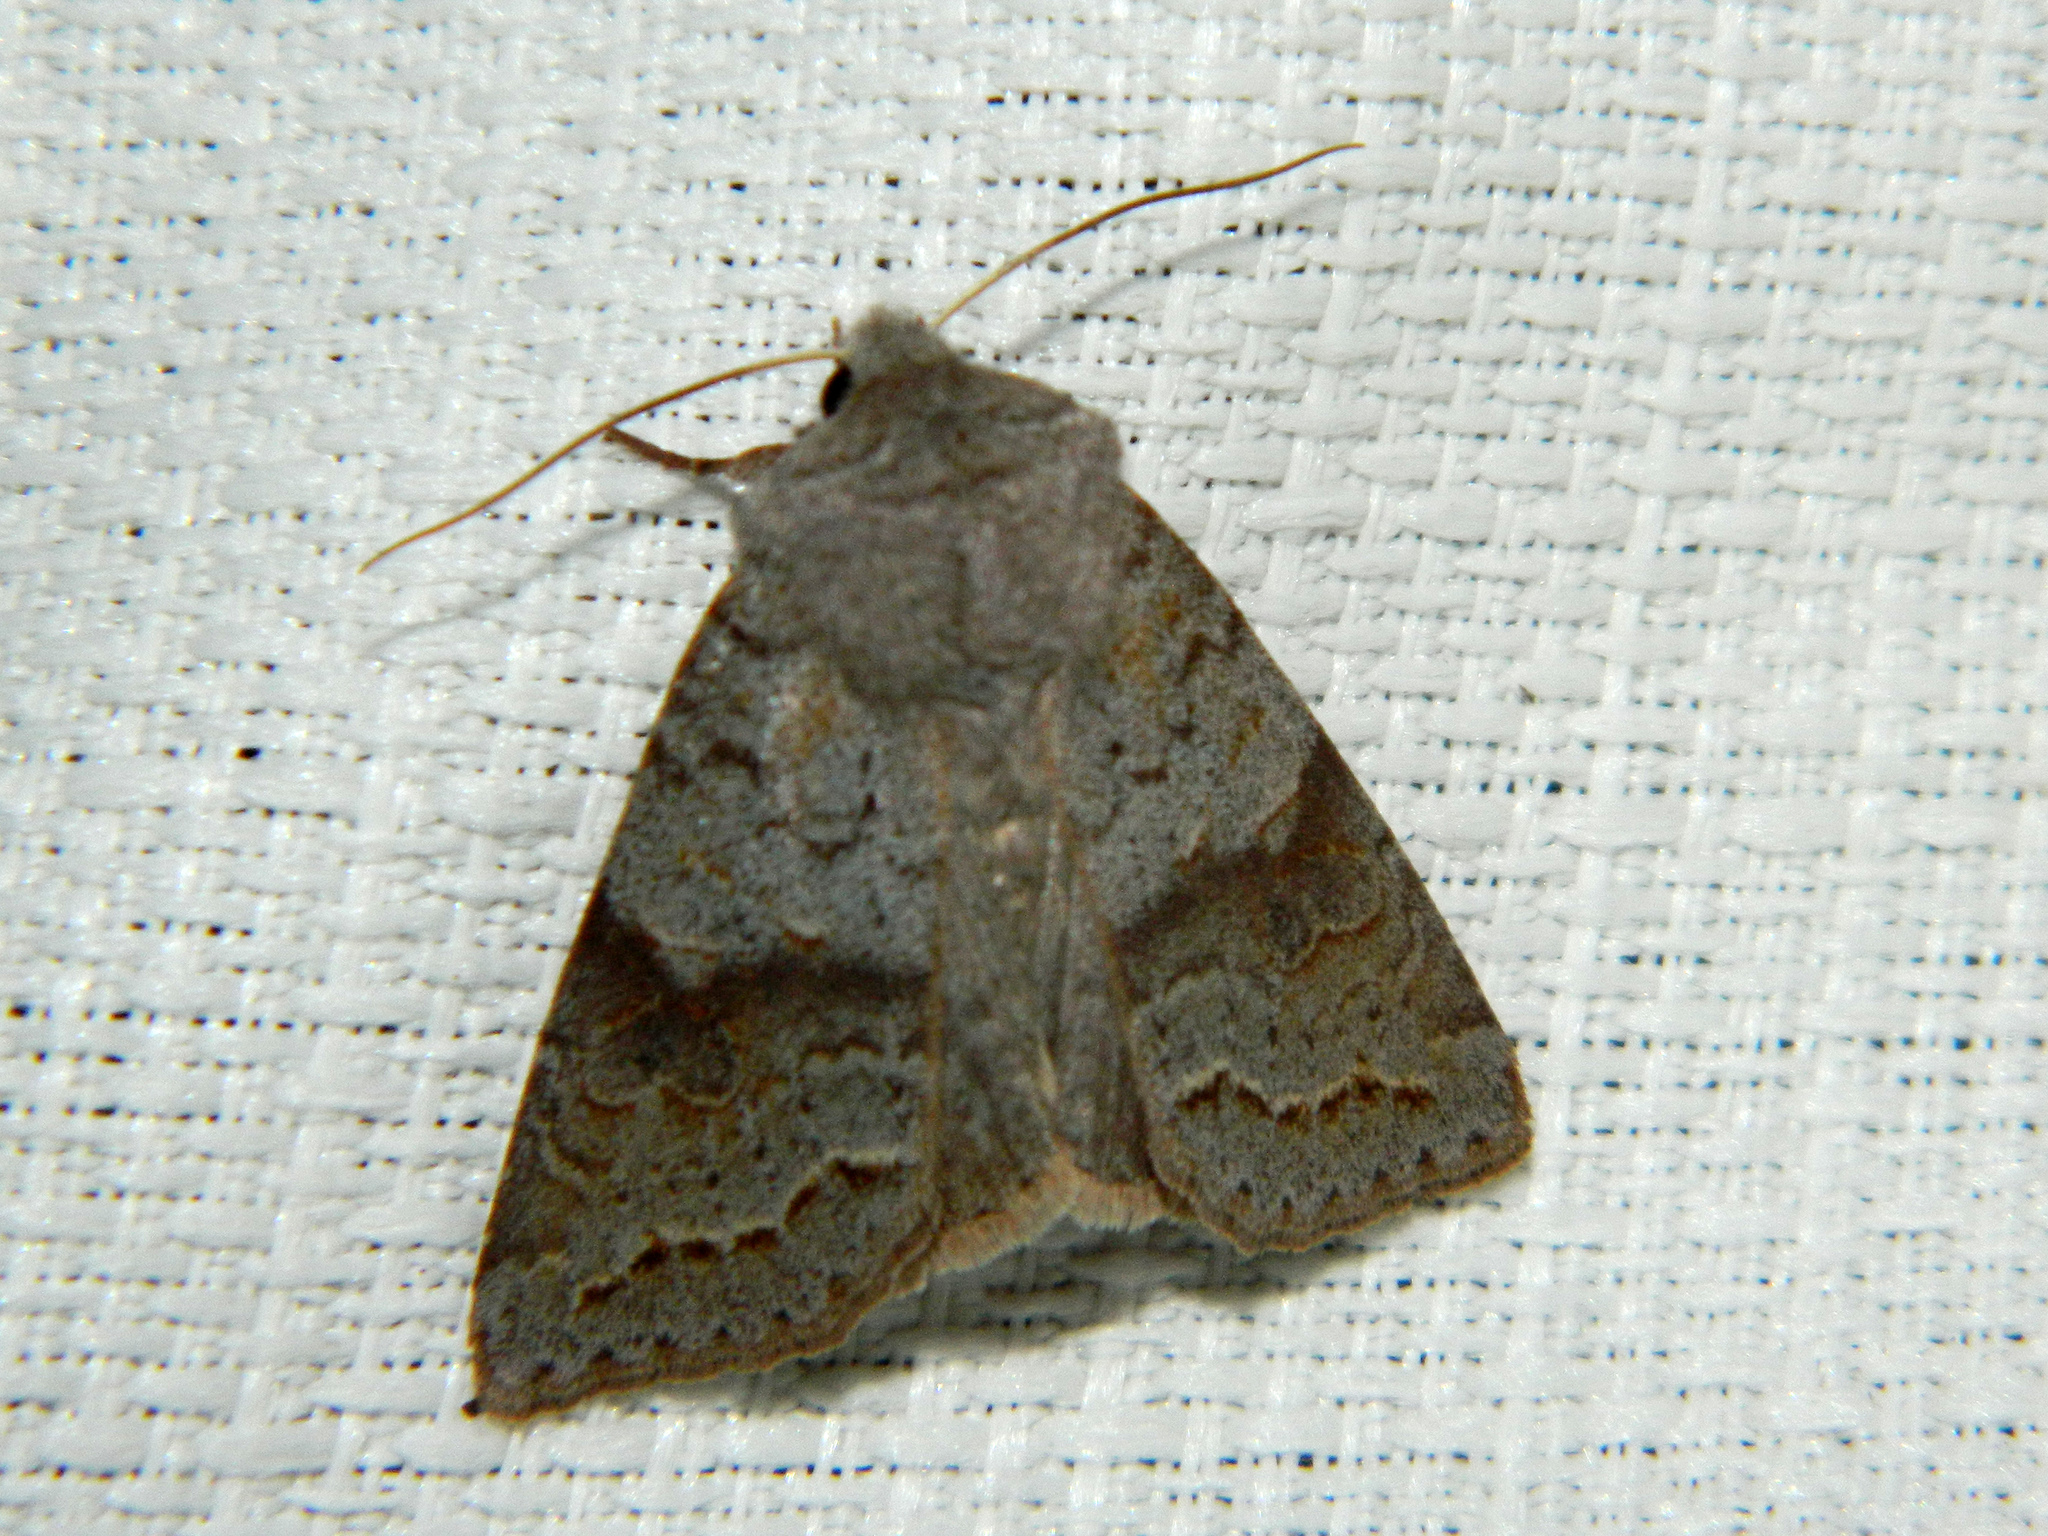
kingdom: Animalia
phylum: Arthropoda
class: Insecta
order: Lepidoptera
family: Noctuidae
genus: Orthosia
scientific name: Orthosia revicta
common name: Rusty whitesided caterpillar
